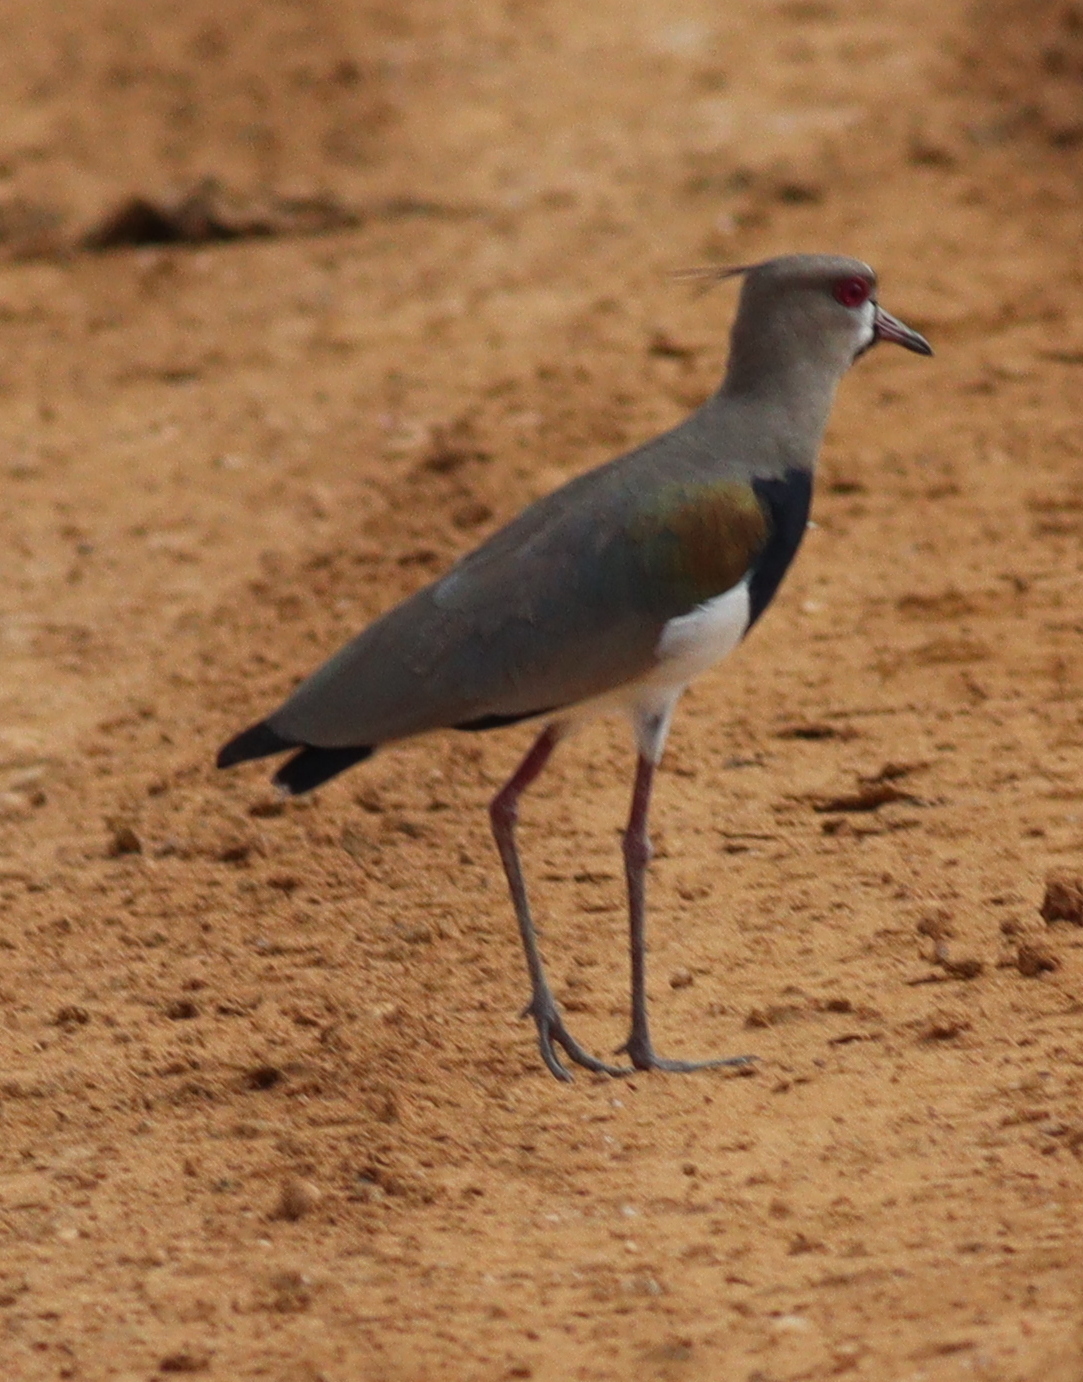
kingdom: Animalia
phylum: Chordata
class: Aves
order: Charadriiformes
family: Charadriidae
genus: Vanellus
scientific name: Vanellus chilensis
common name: Southern lapwing
